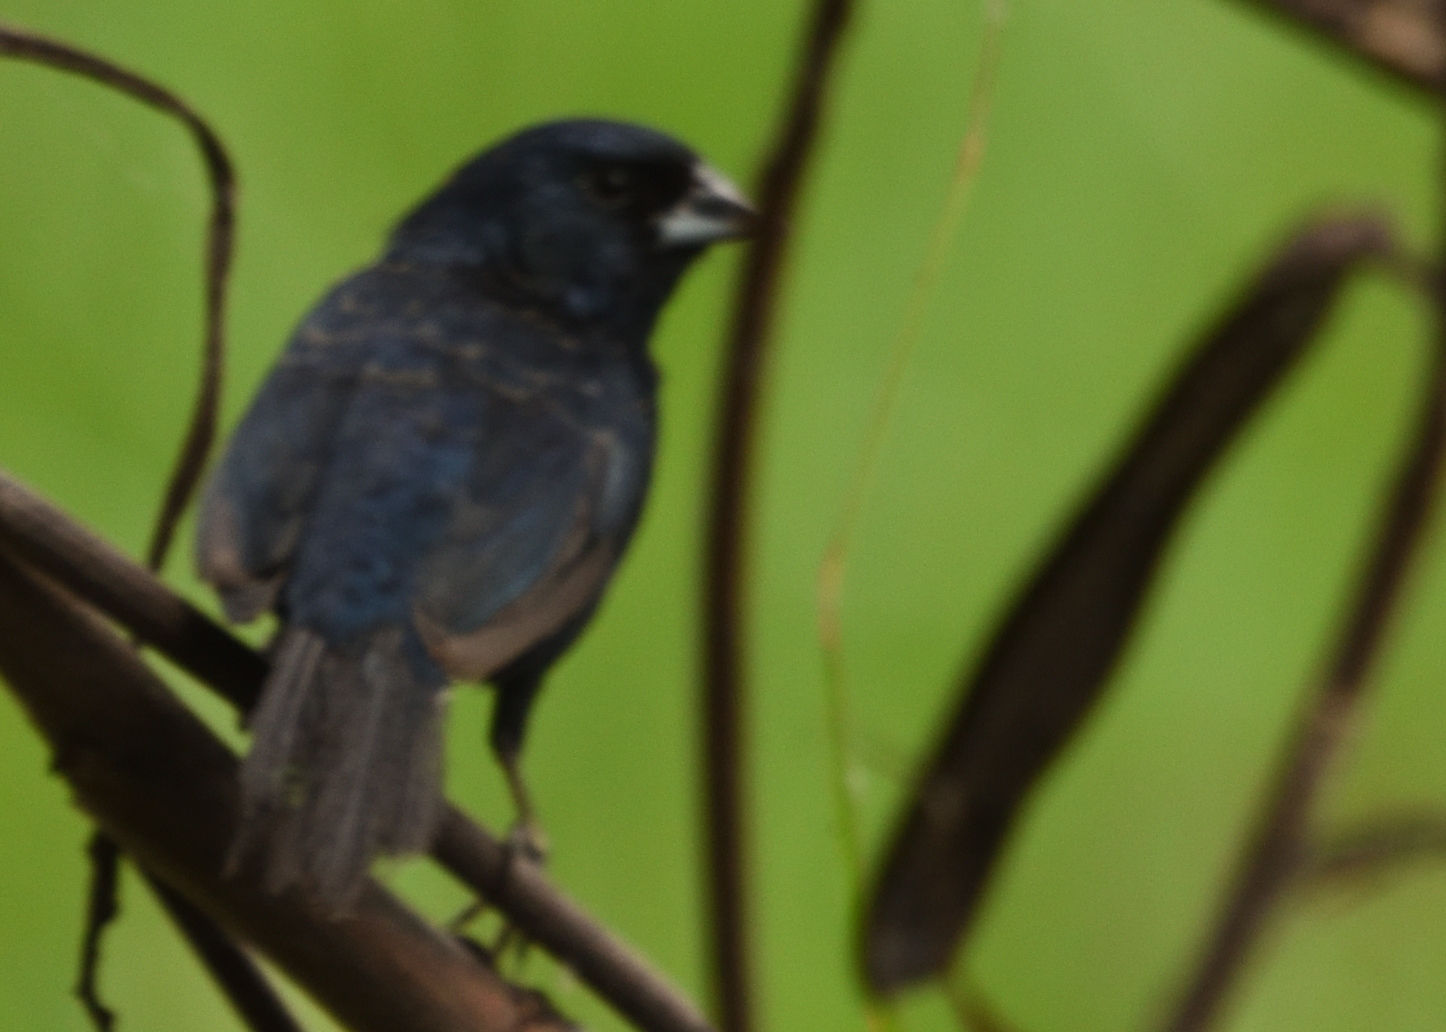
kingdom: Animalia
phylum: Chordata
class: Aves
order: Passeriformes
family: Thraupidae
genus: Volatinia
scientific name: Volatinia jacarina
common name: Blue-black grassquit
